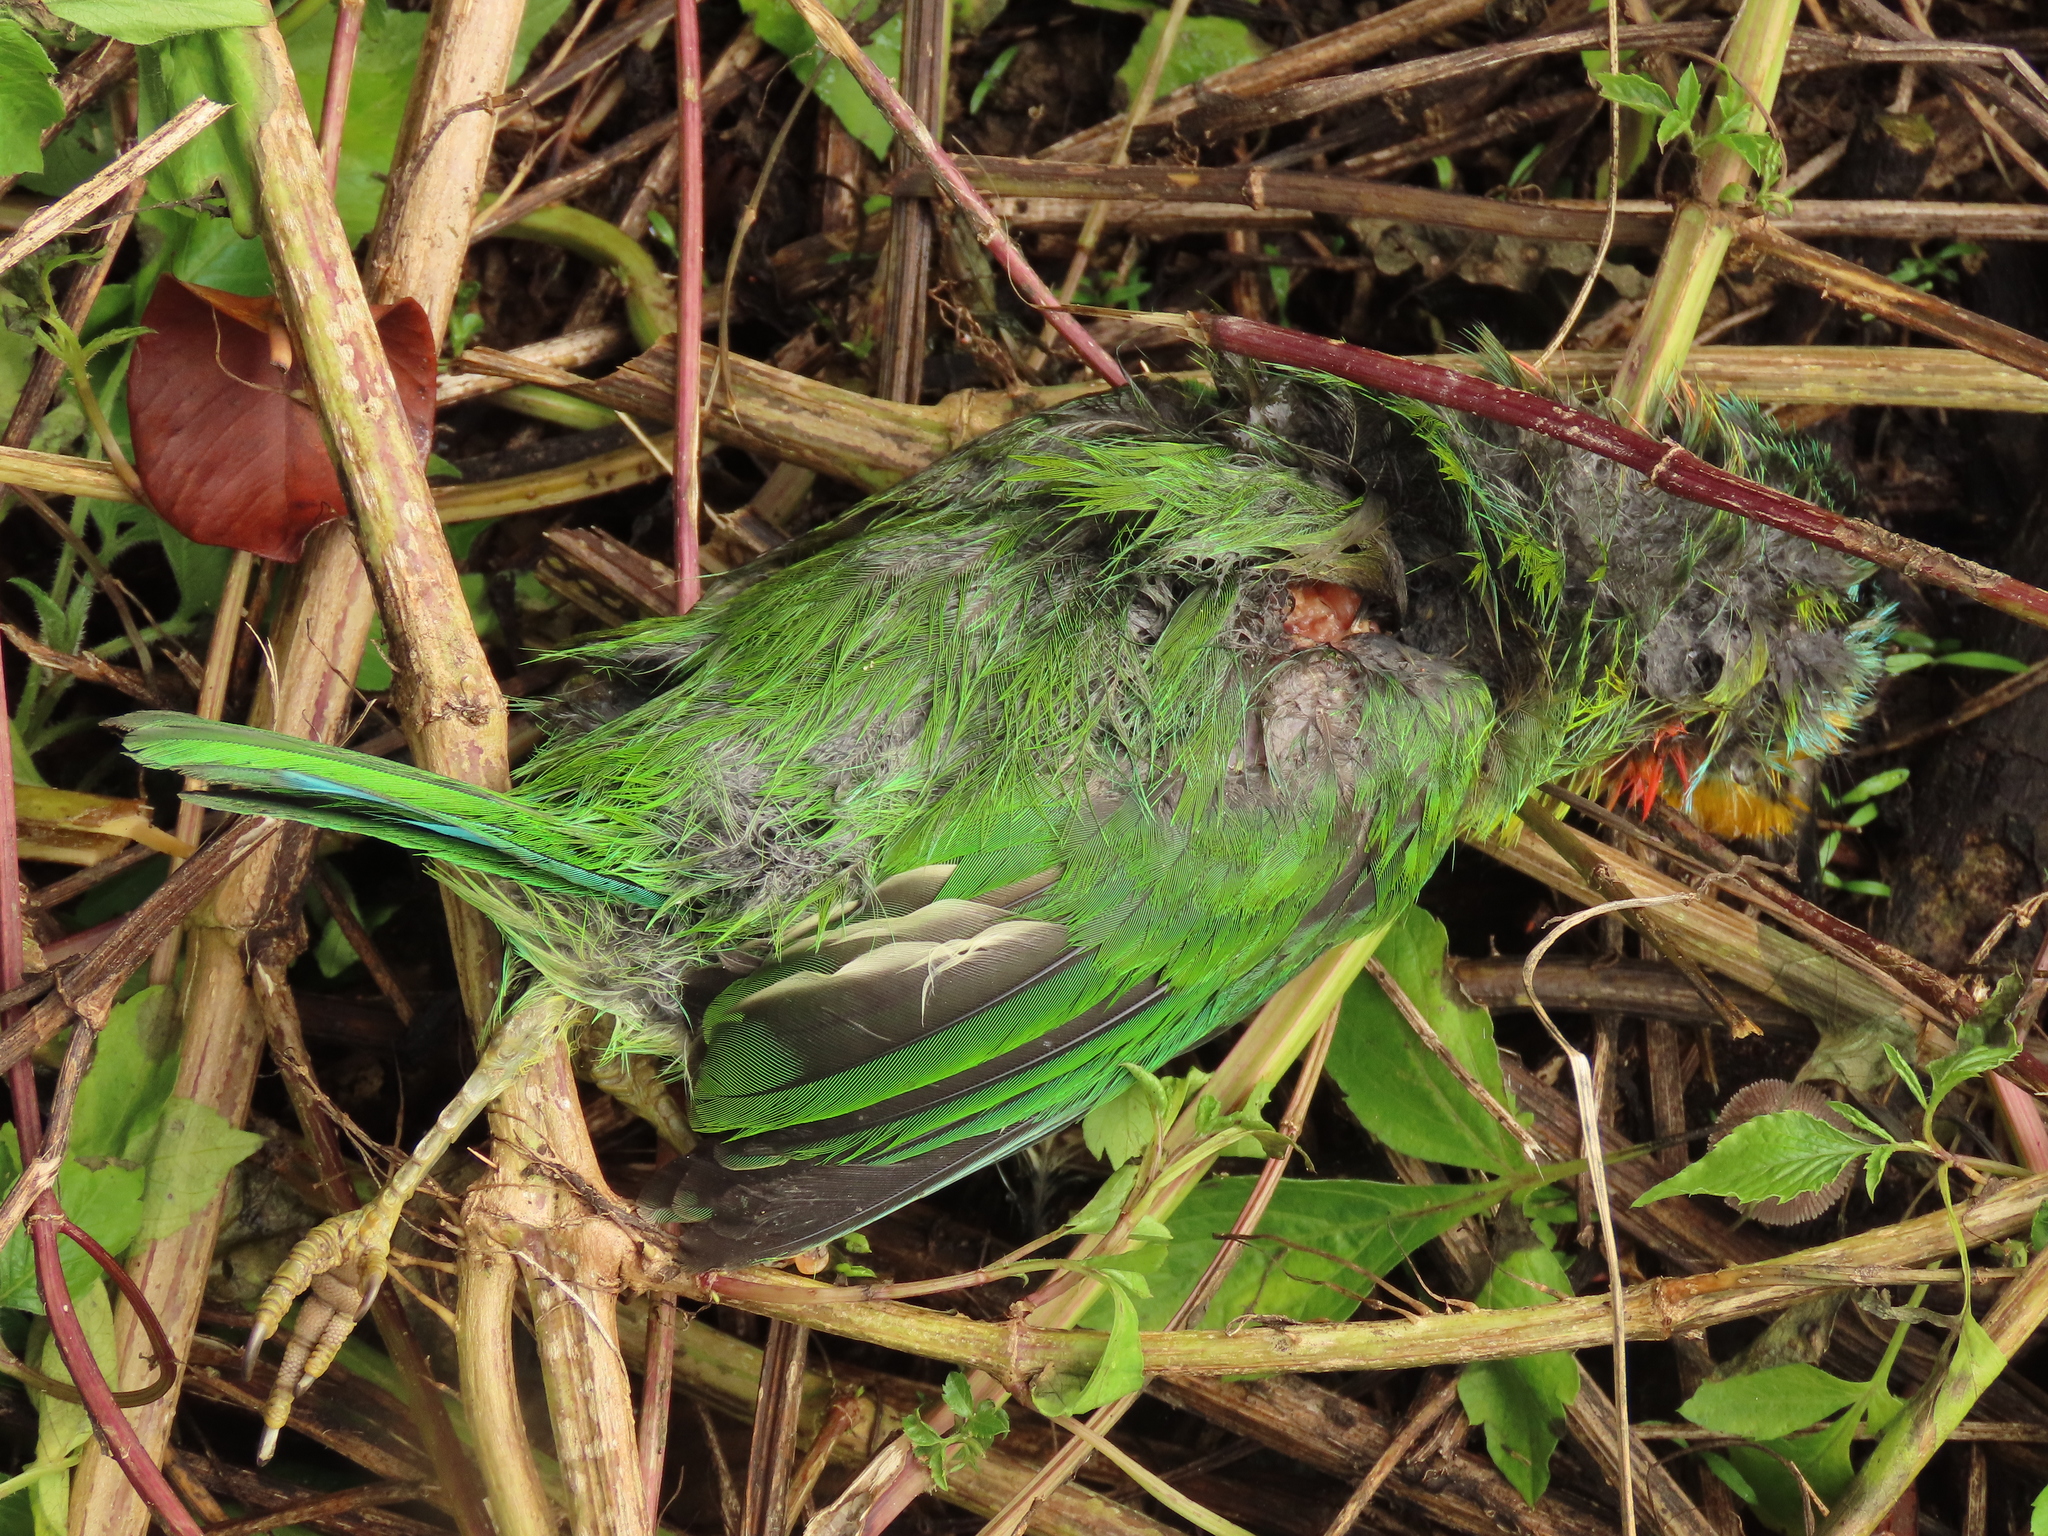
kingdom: Animalia
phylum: Chordata
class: Aves
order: Piciformes
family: Megalaimidae
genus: Psilopogon
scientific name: Psilopogon nuchalis
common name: Taiwan barbet
